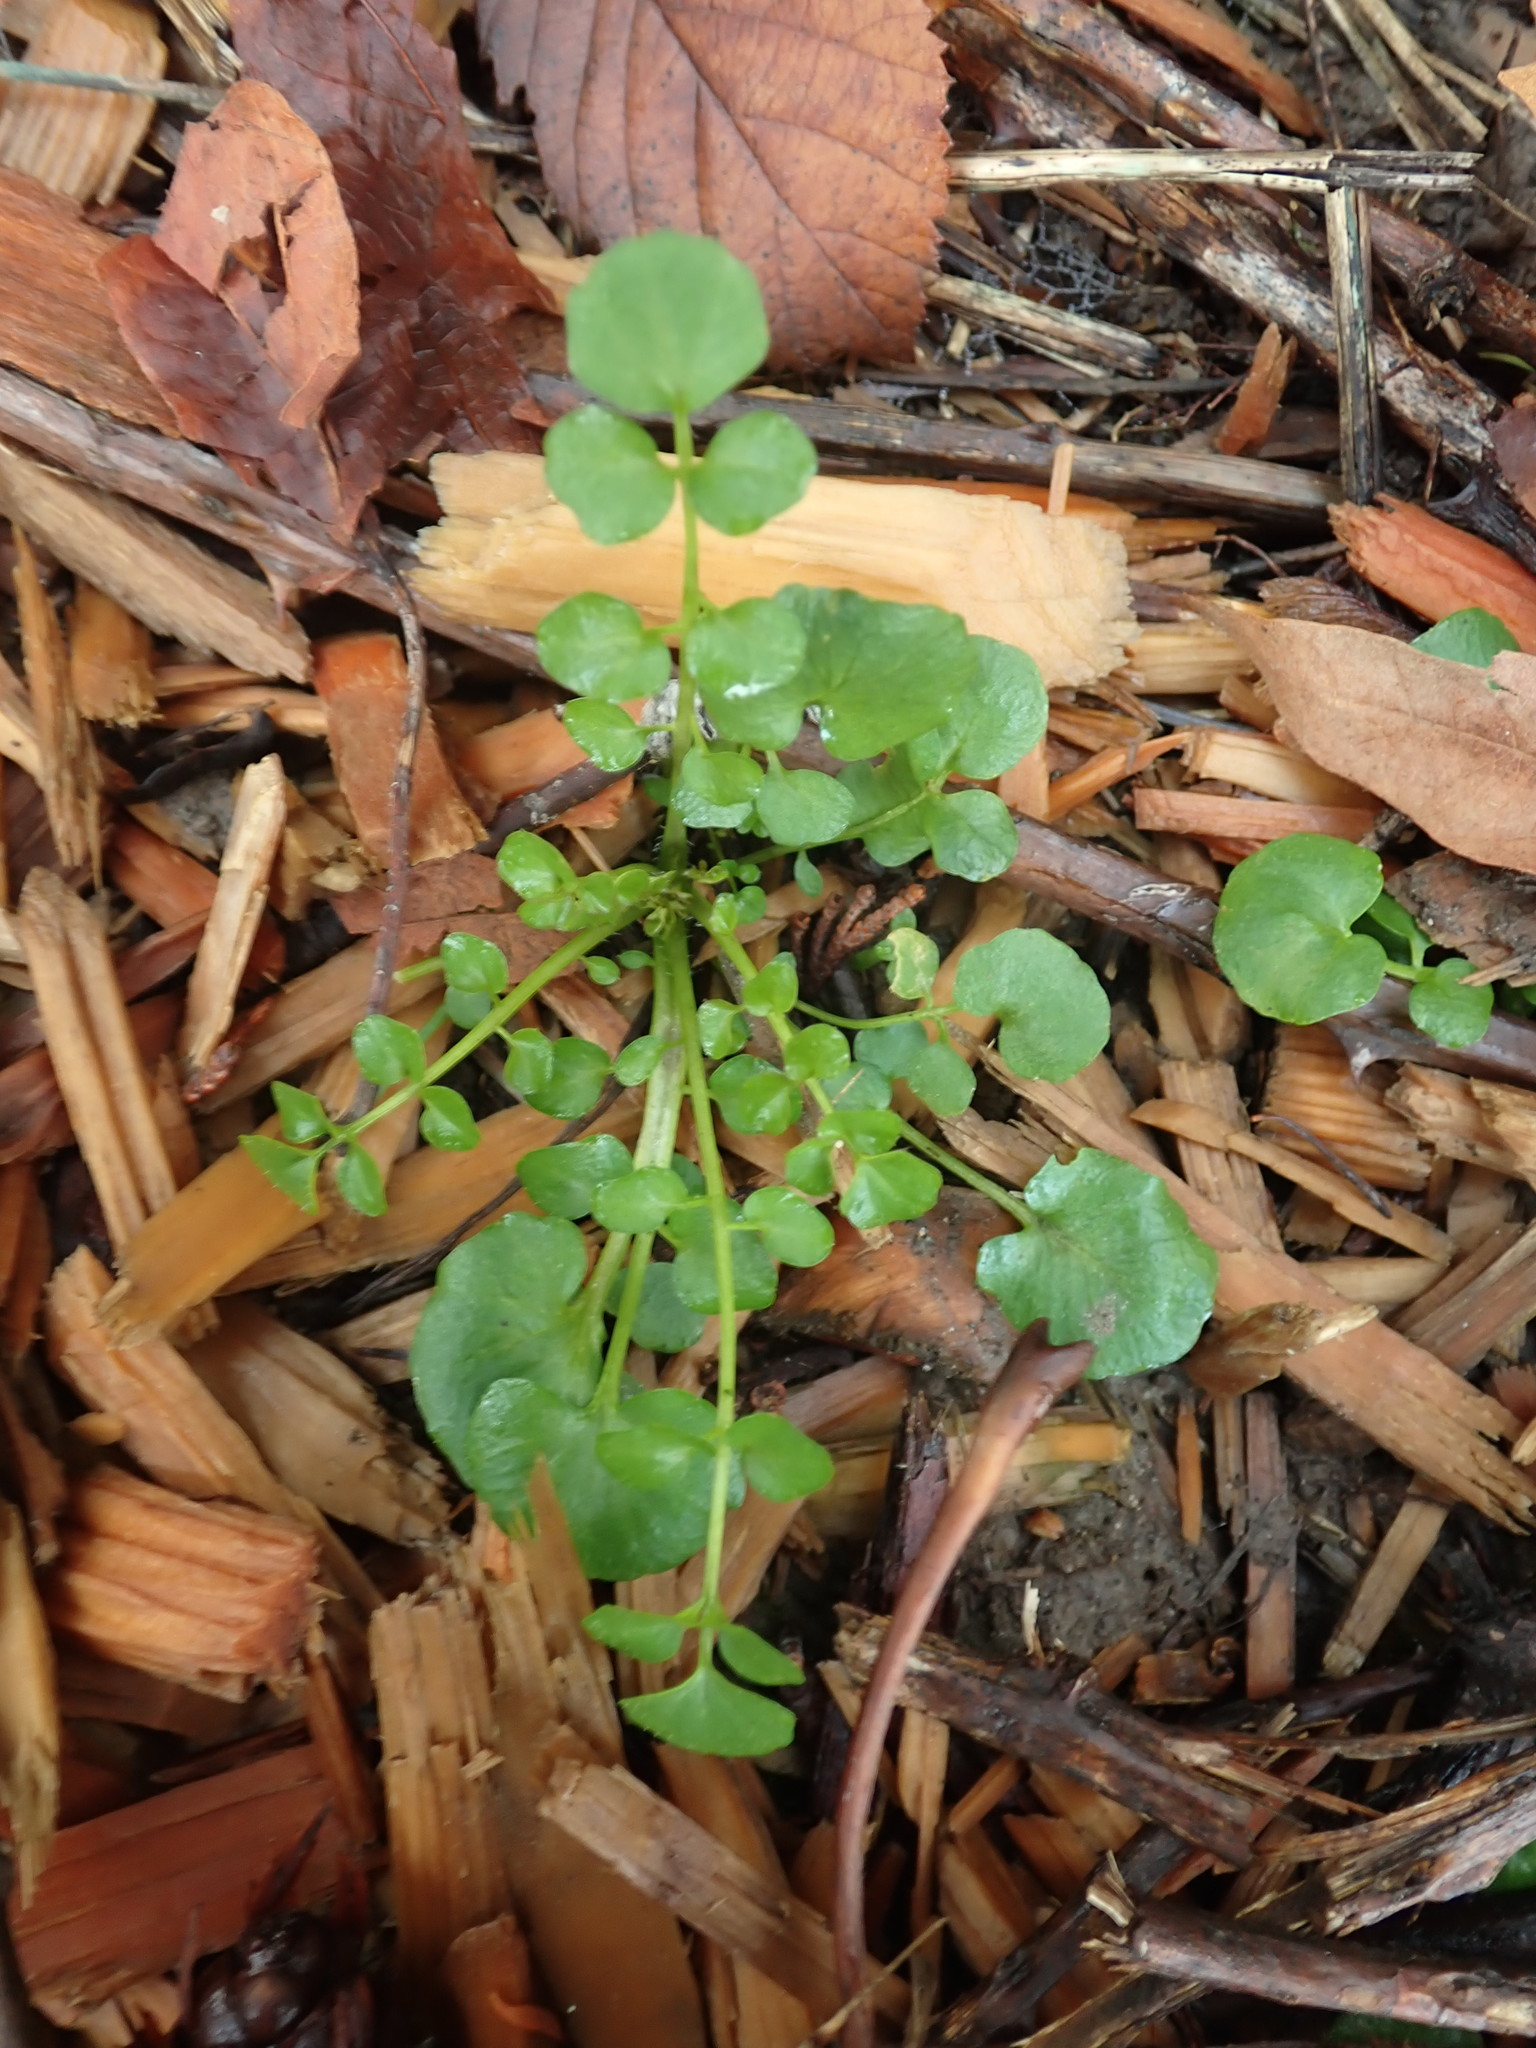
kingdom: Plantae
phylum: Tracheophyta
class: Magnoliopsida
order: Brassicales
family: Brassicaceae
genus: Cardamine
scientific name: Cardamine hirsuta
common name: Hairy bittercress
